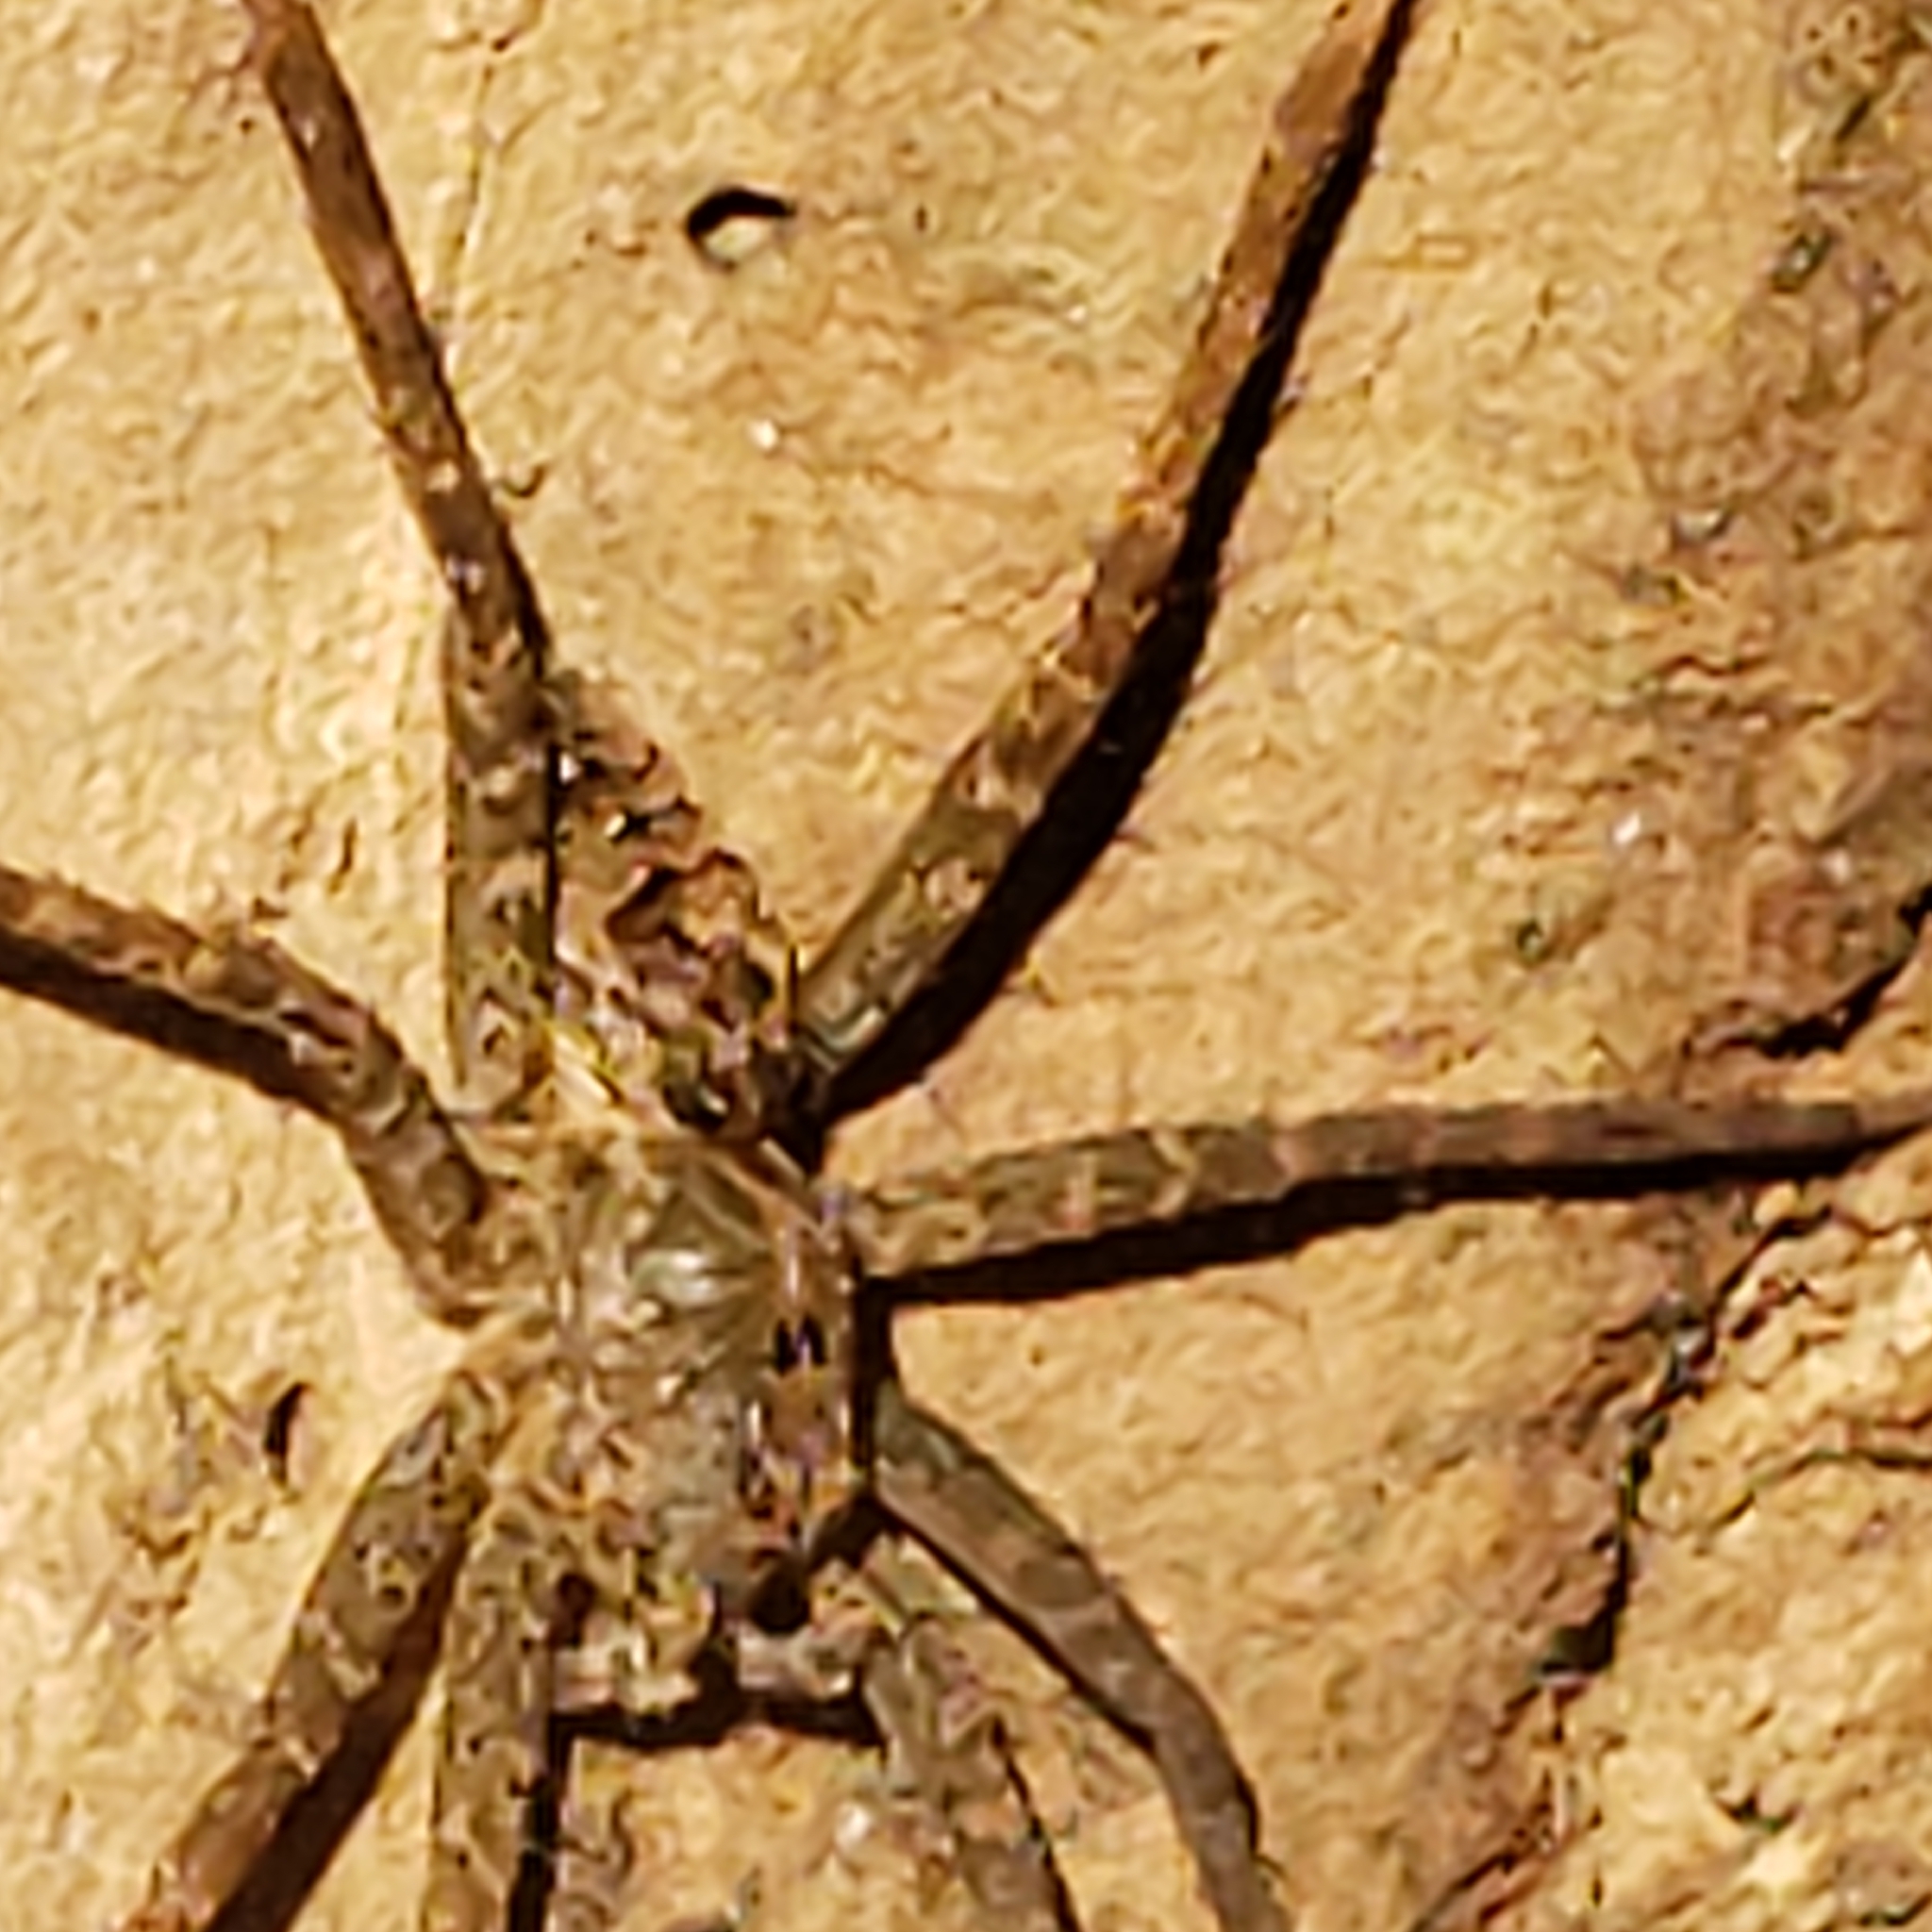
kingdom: Animalia
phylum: Arthropoda
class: Arachnida
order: Araneae
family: Pisauridae
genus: Dolomedes
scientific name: Dolomedes vittatus
